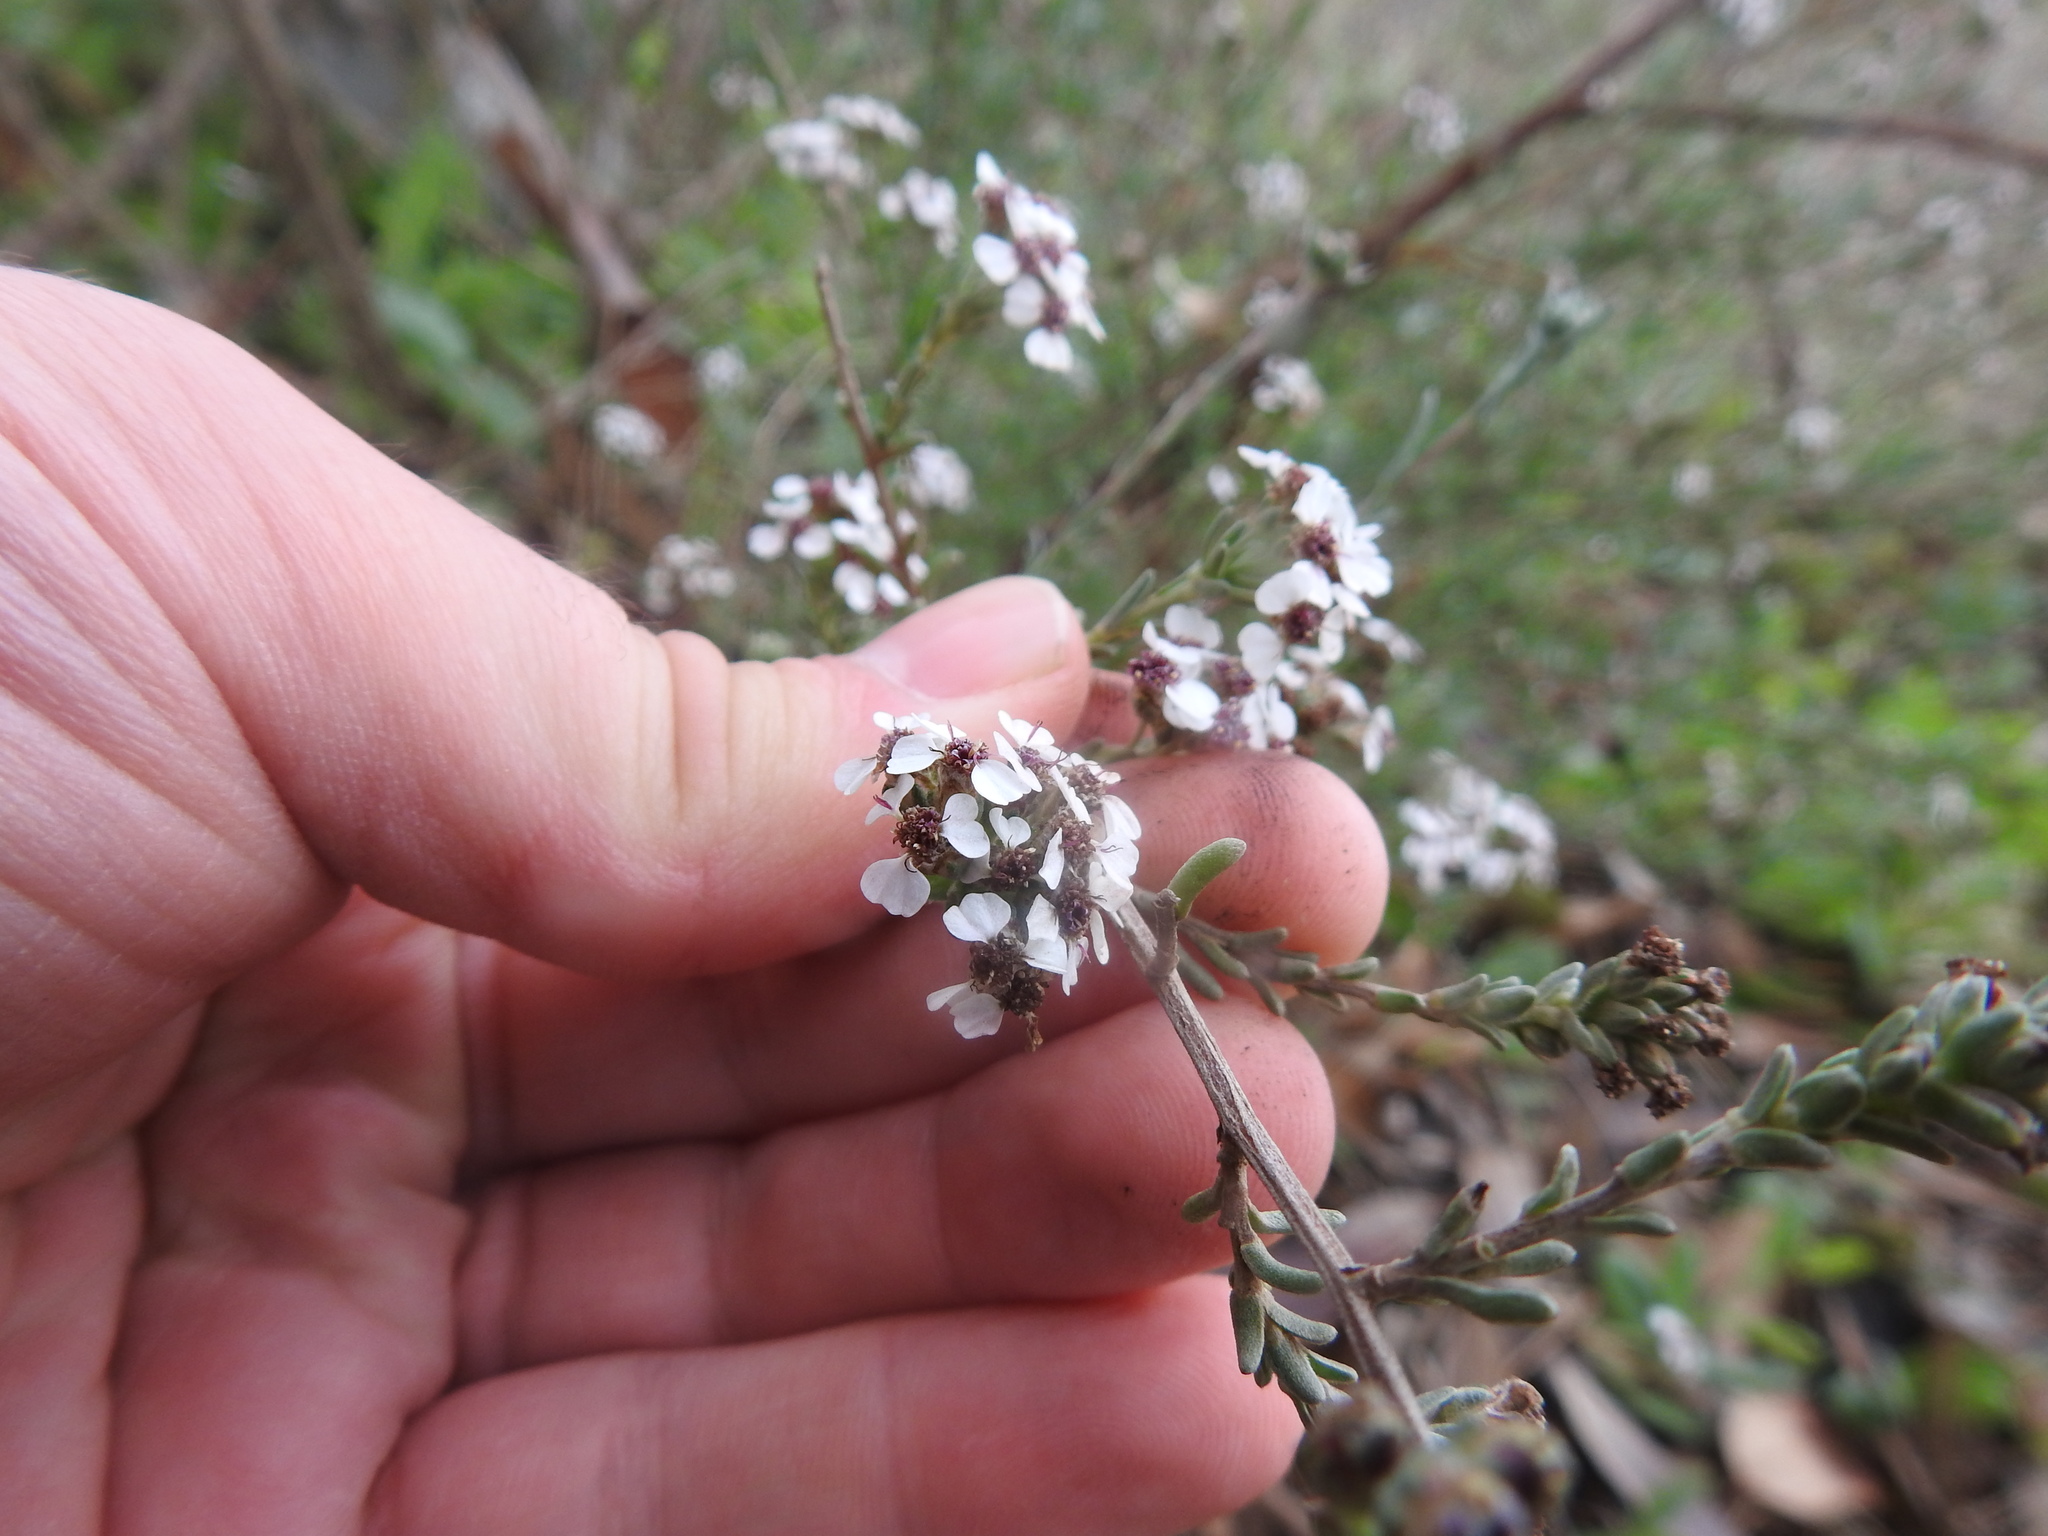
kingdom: Plantae
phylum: Tracheophyta
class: Magnoliopsida
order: Asterales
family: Asteraceae
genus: Eriocephalus
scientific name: Eriocephalus africanus
